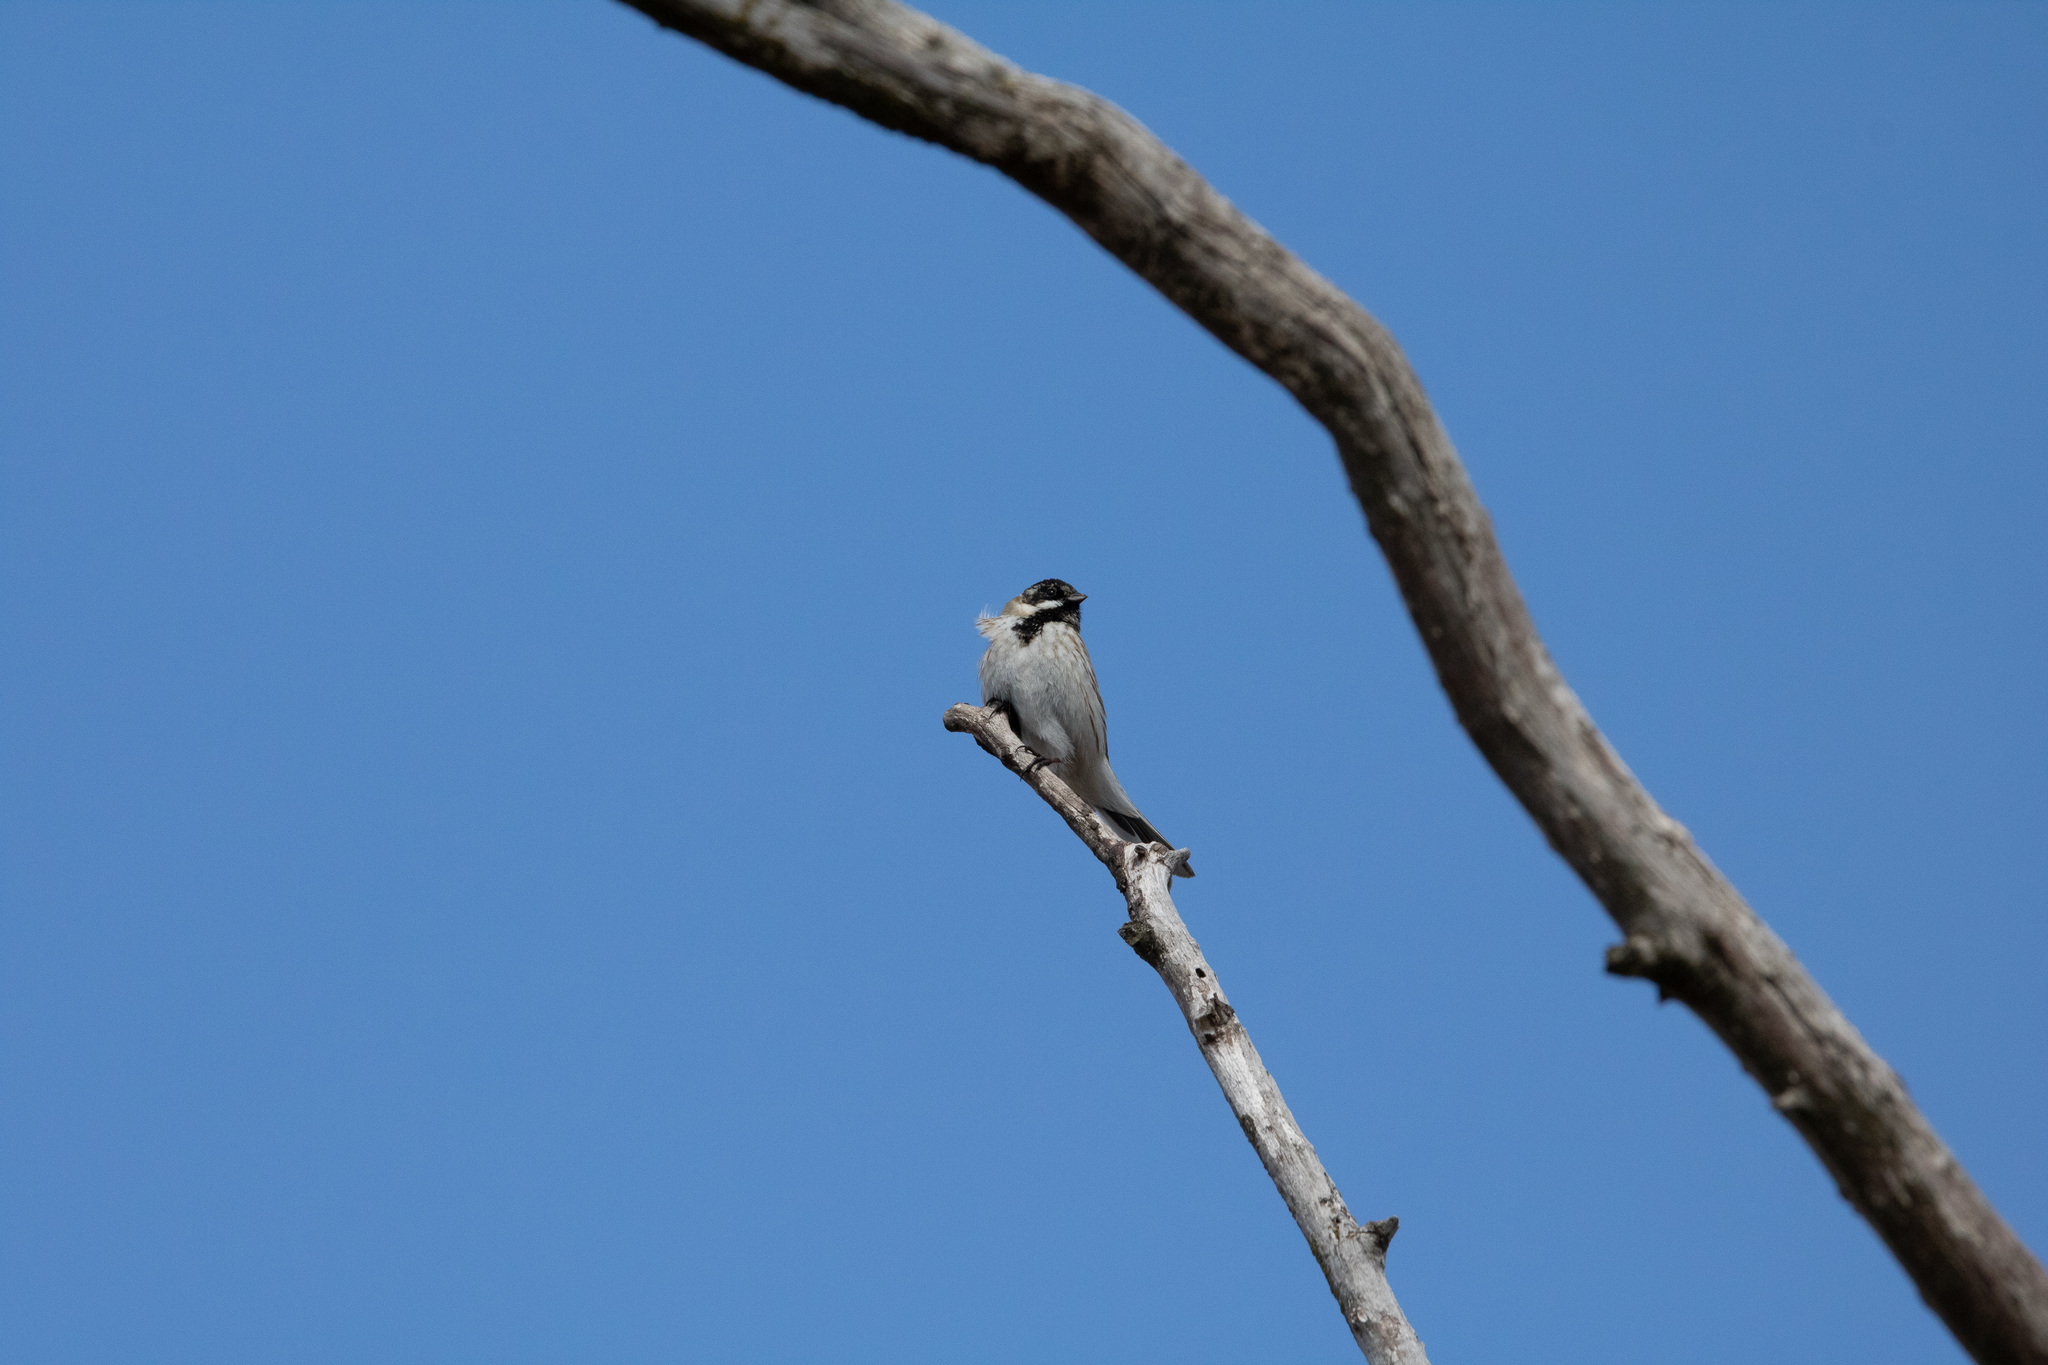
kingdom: Animalia
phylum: Chordata
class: Aves
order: Passeriformes
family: Emberizidae
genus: Emberiza
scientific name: Emberiza schoeniclus
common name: Reed bunting
